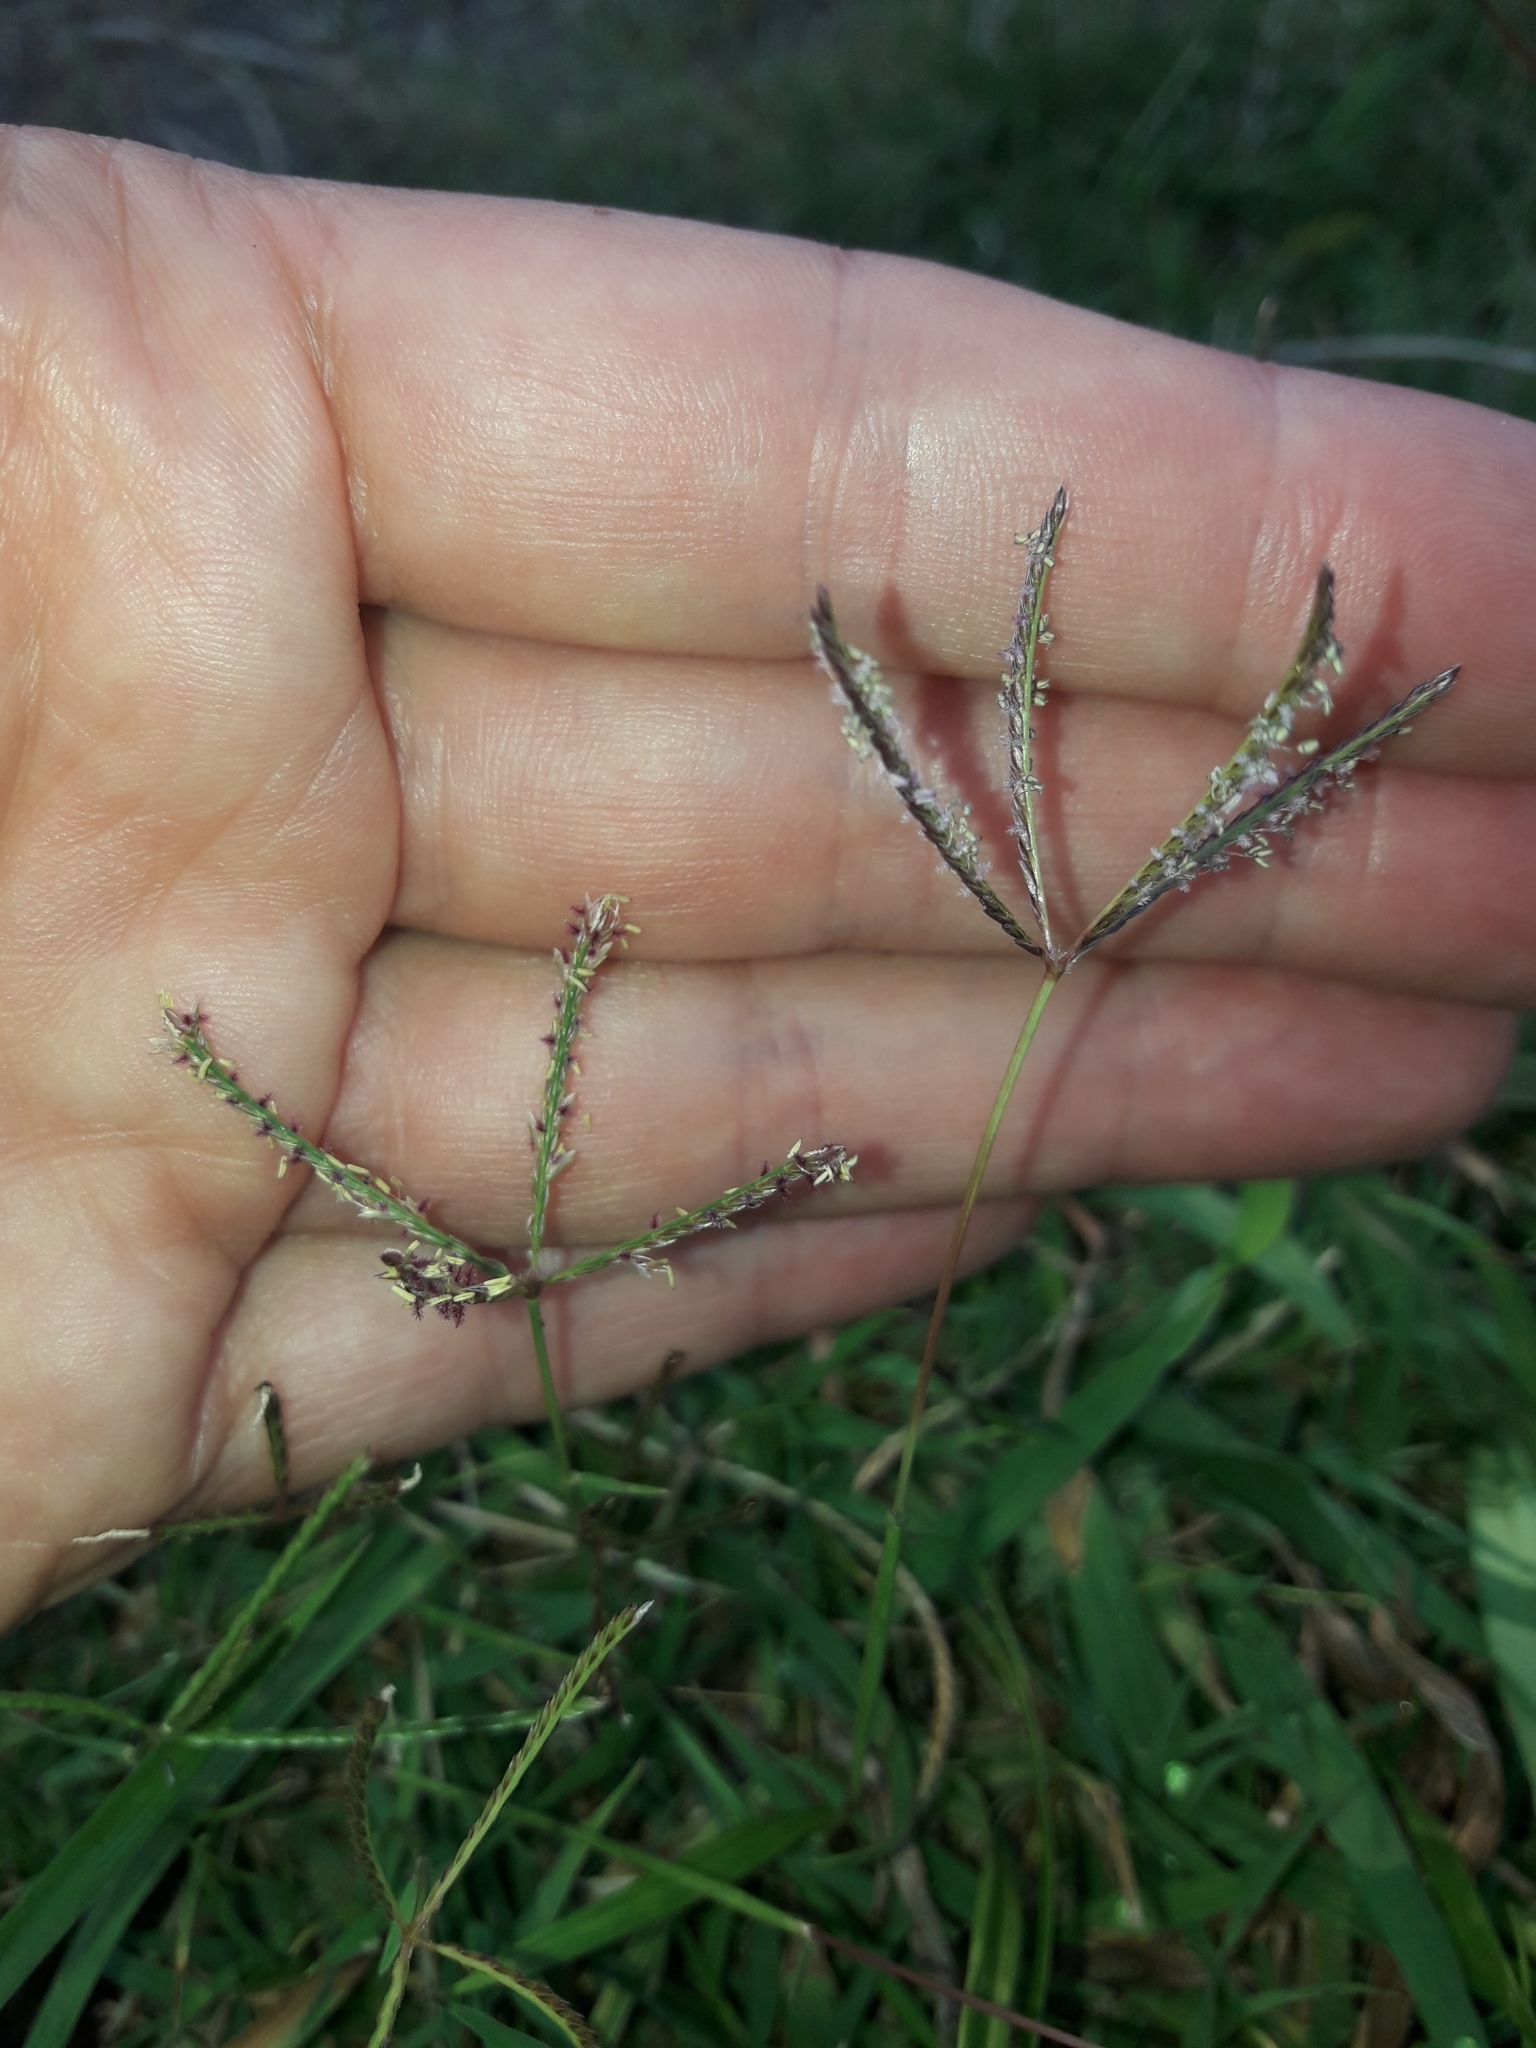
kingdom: Plantae
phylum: Tracheophyta
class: Liliopsida
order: Poales
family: Poaceae
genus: Cynodon
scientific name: Cynodon dactylon
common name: Bermuda grass
